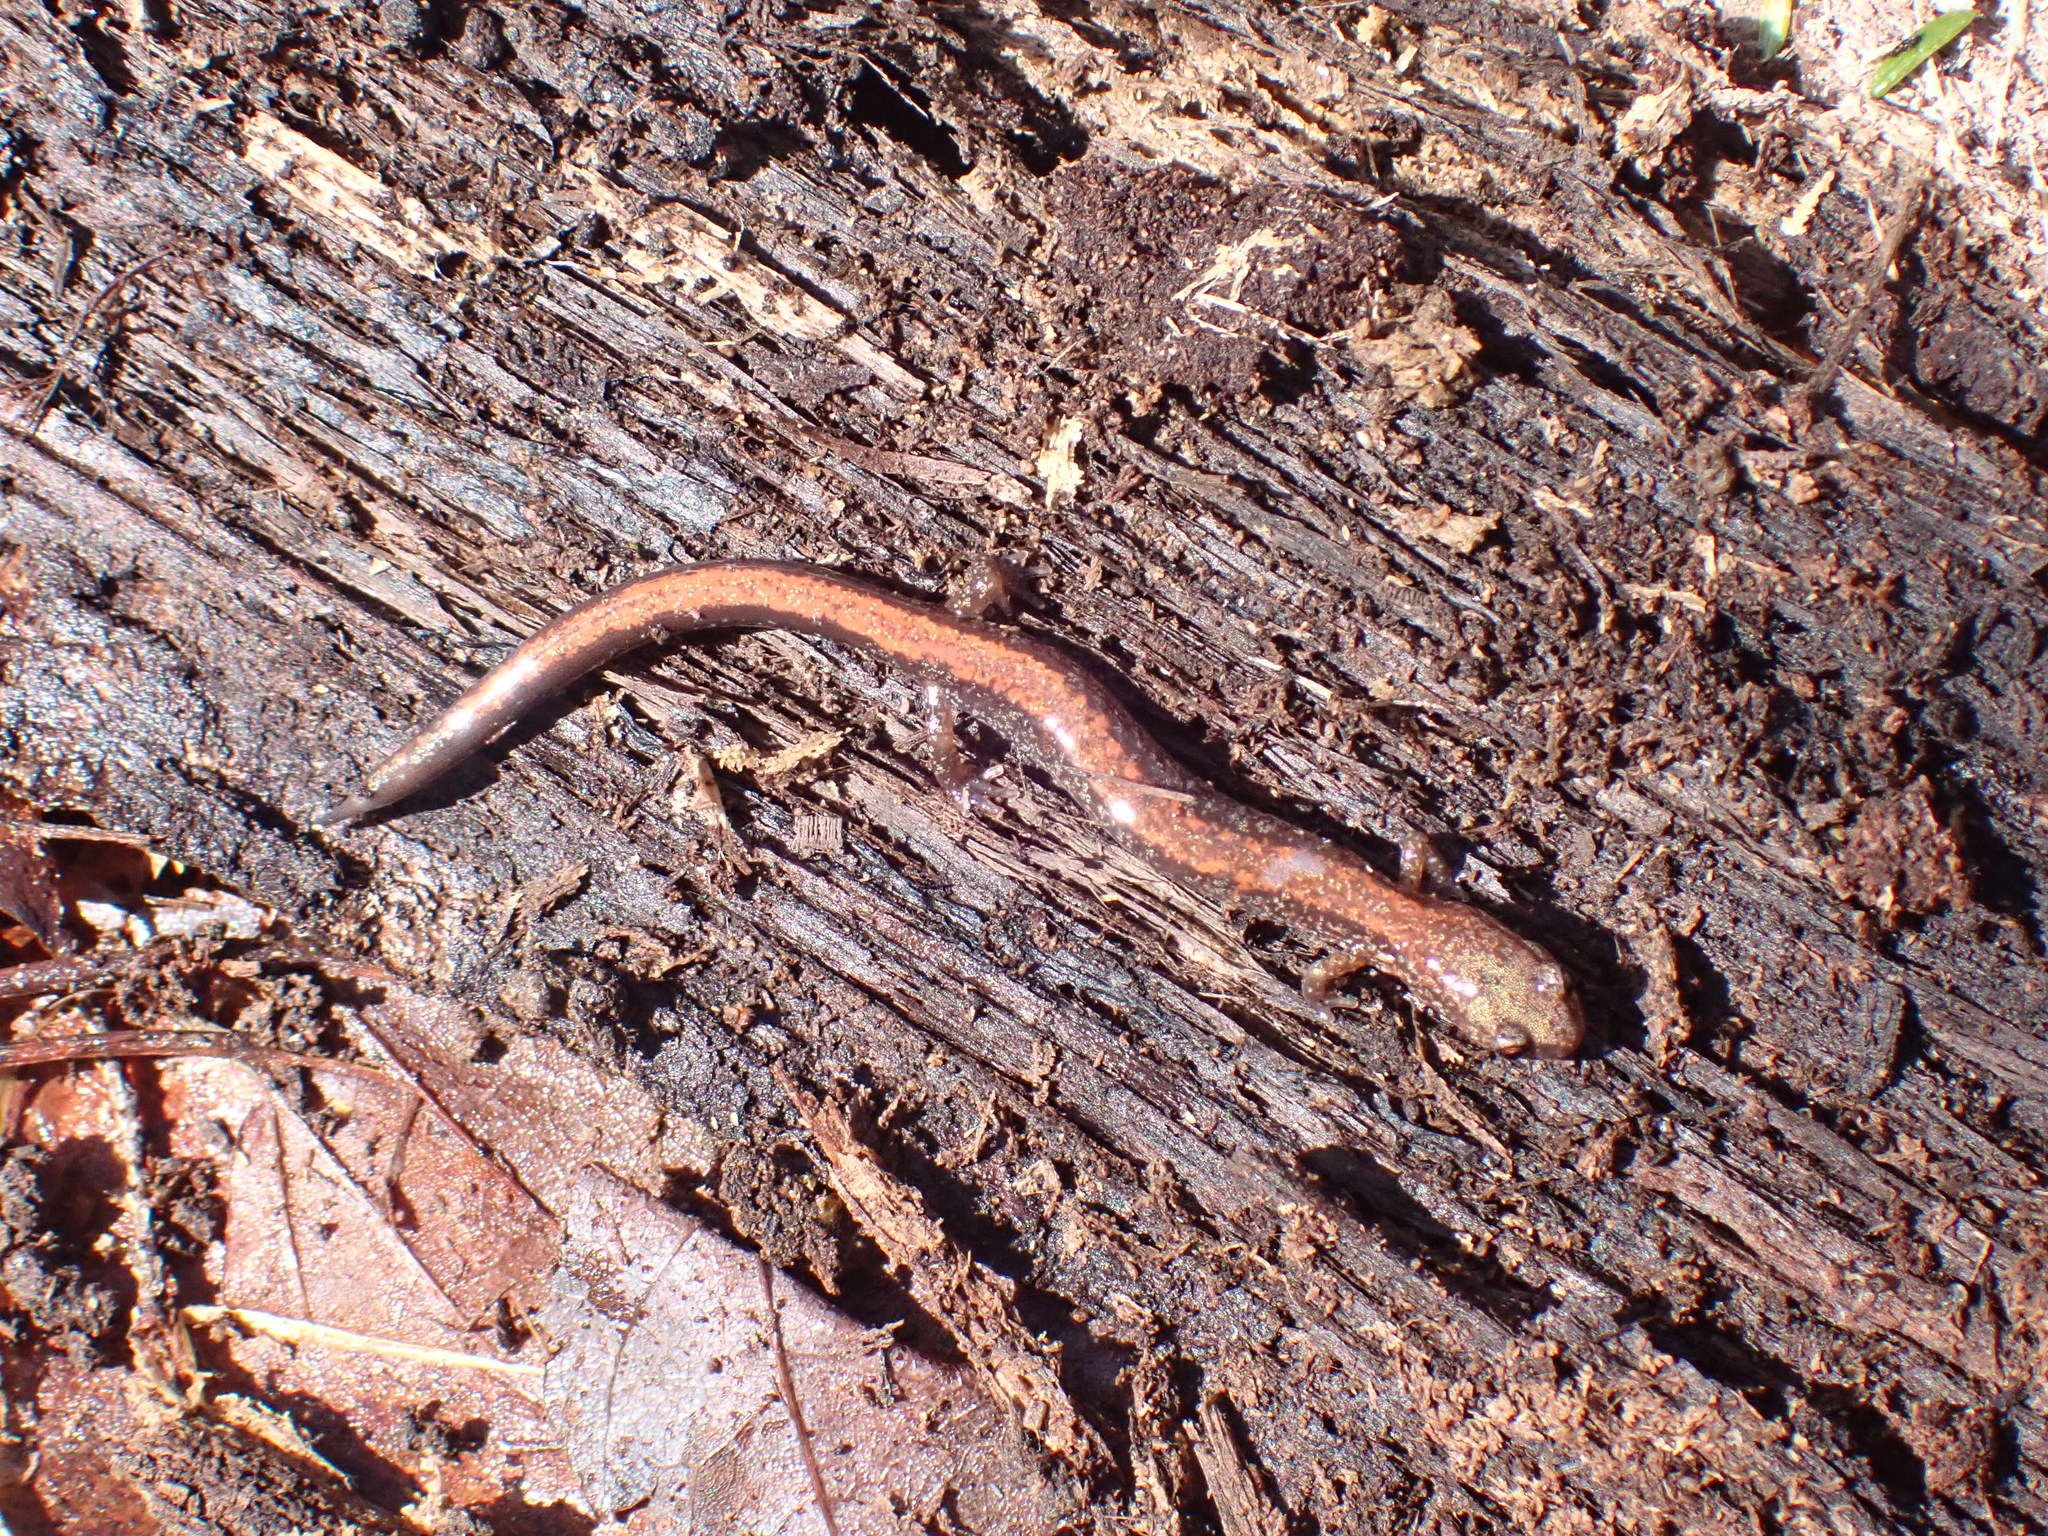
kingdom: Animalia
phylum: Chordata
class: Amphibia
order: Caudata
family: Plethodontidae
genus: Plethodon
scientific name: Plethodon cinereus
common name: Redback salamander
